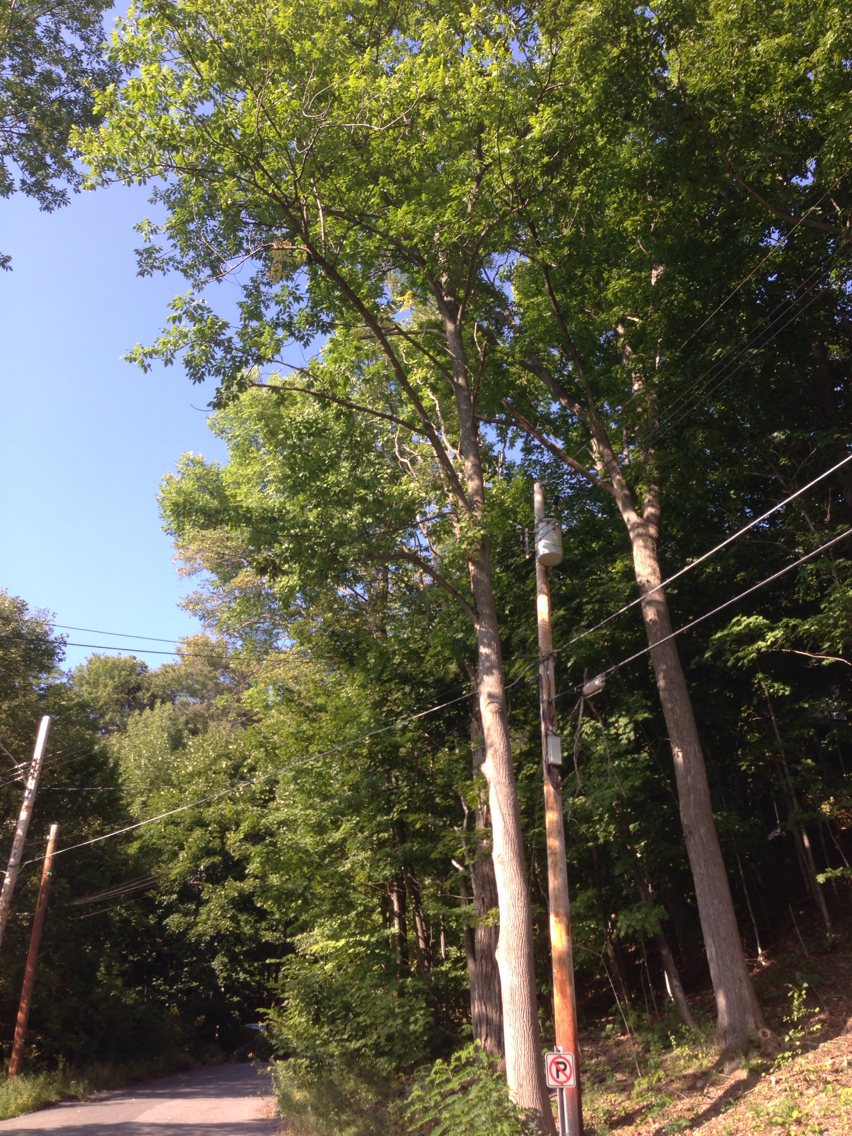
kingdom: Plantae
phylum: Tracheophyta
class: Magnoliopsida
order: Lamiales
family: Oleaceae
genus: Fraxinus
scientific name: Fraxinus americana
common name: White ash
